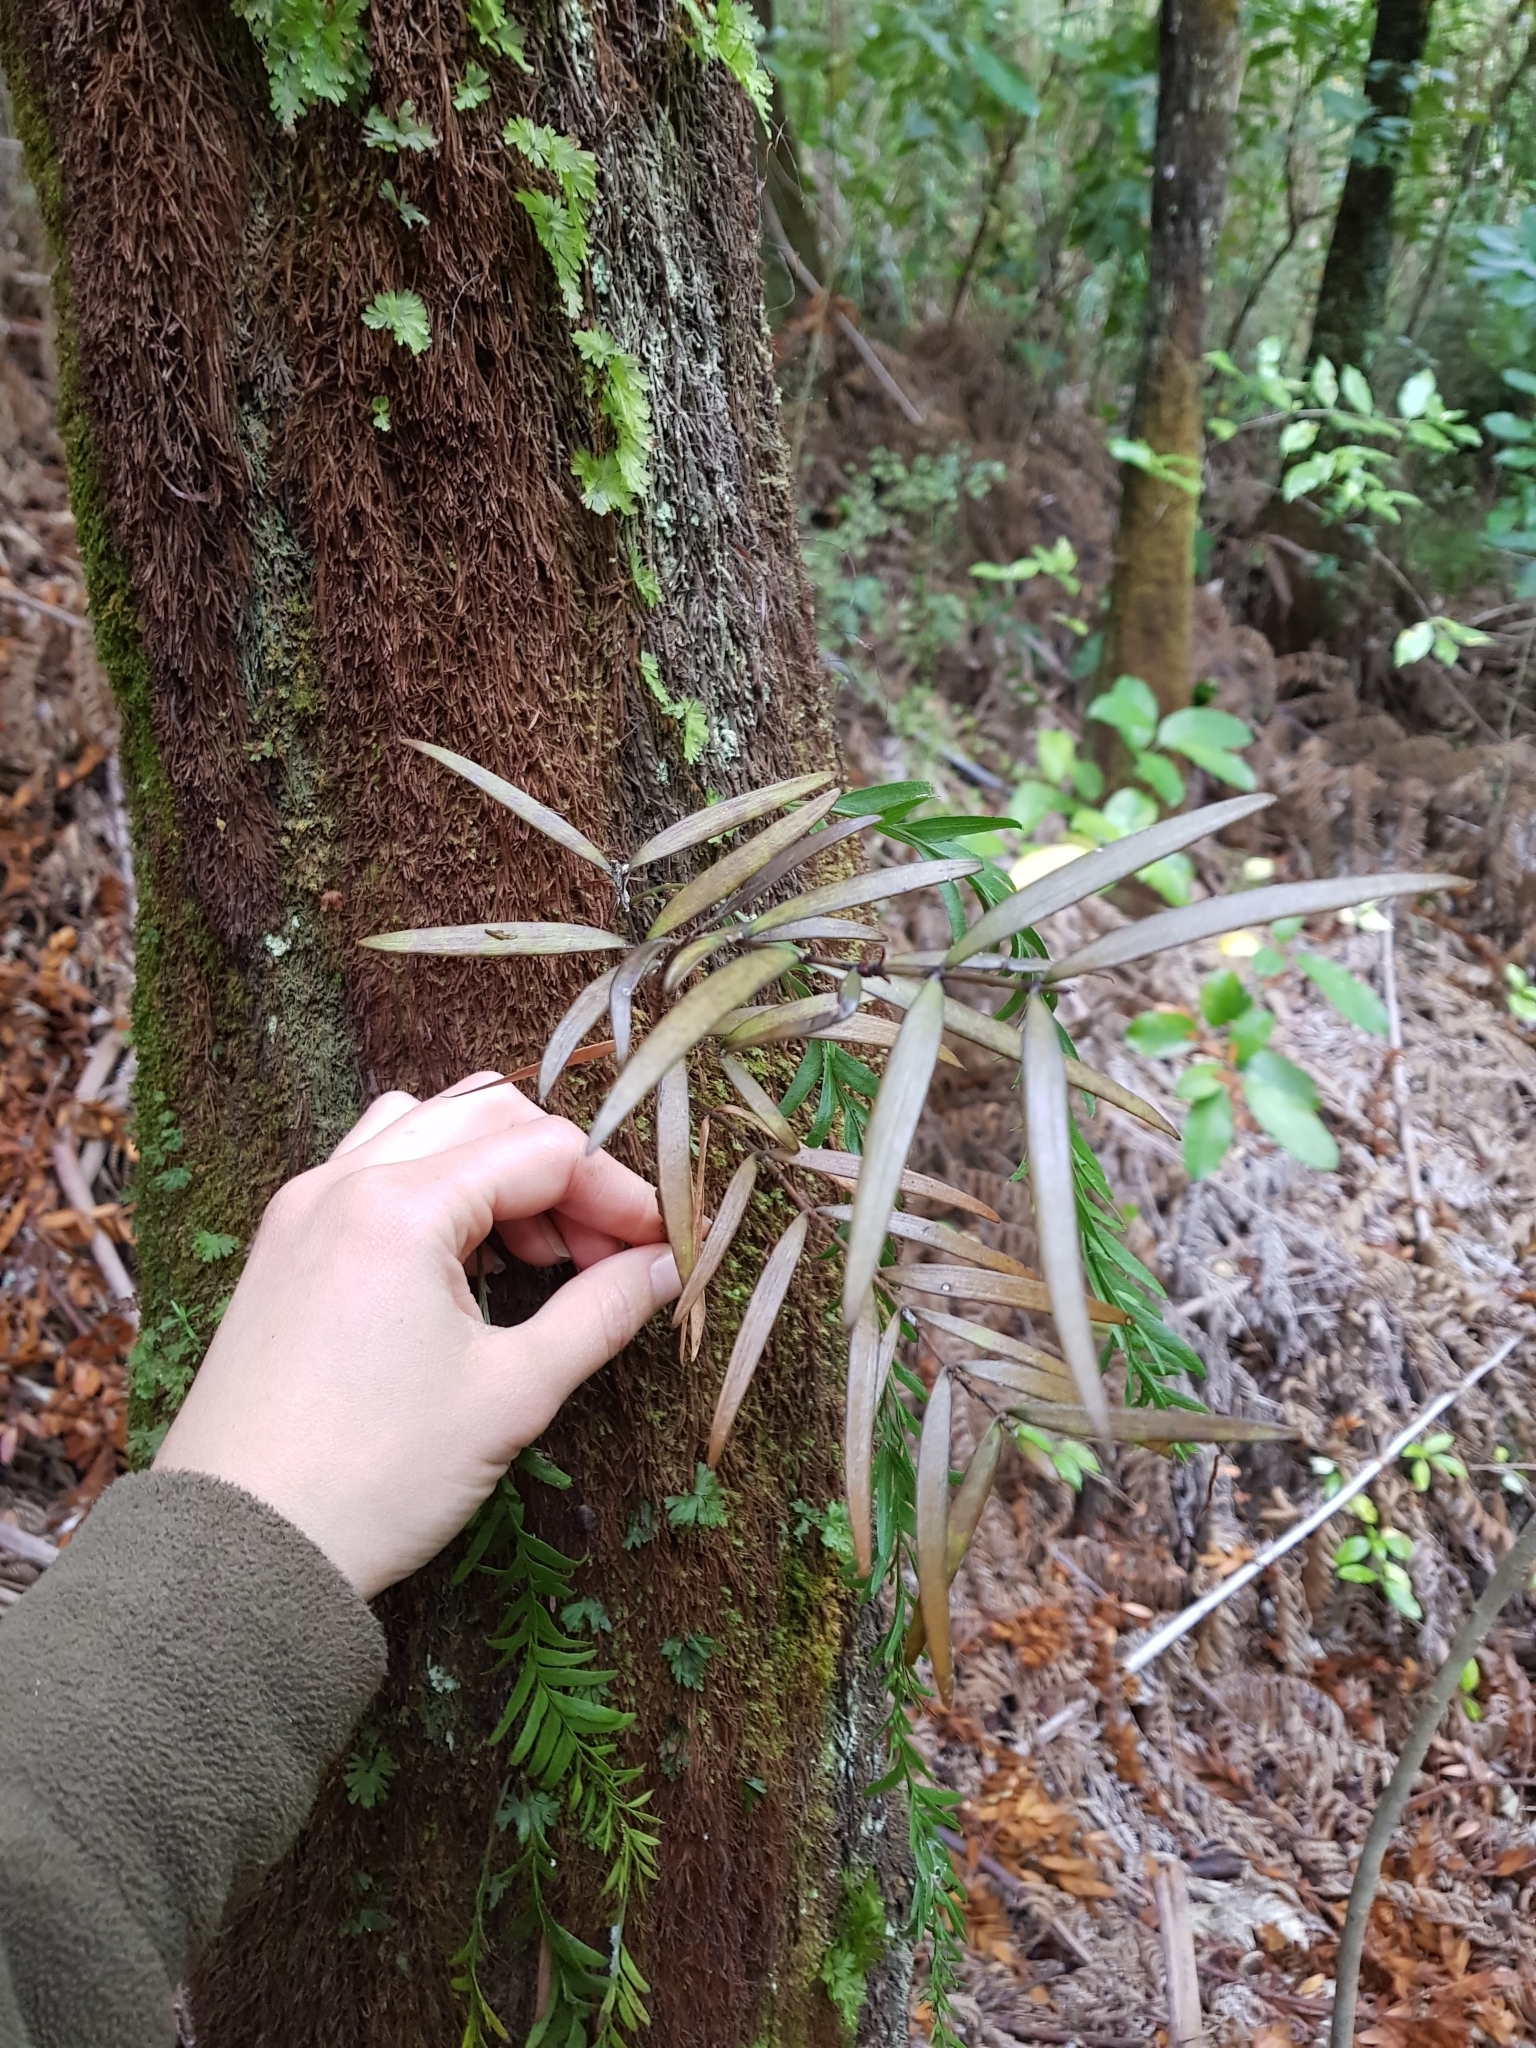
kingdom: Plantae
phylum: Tracheophyta
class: Pinopsida
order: Pinales
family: Araucariaceae
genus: Agathis
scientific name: Agathis australis
